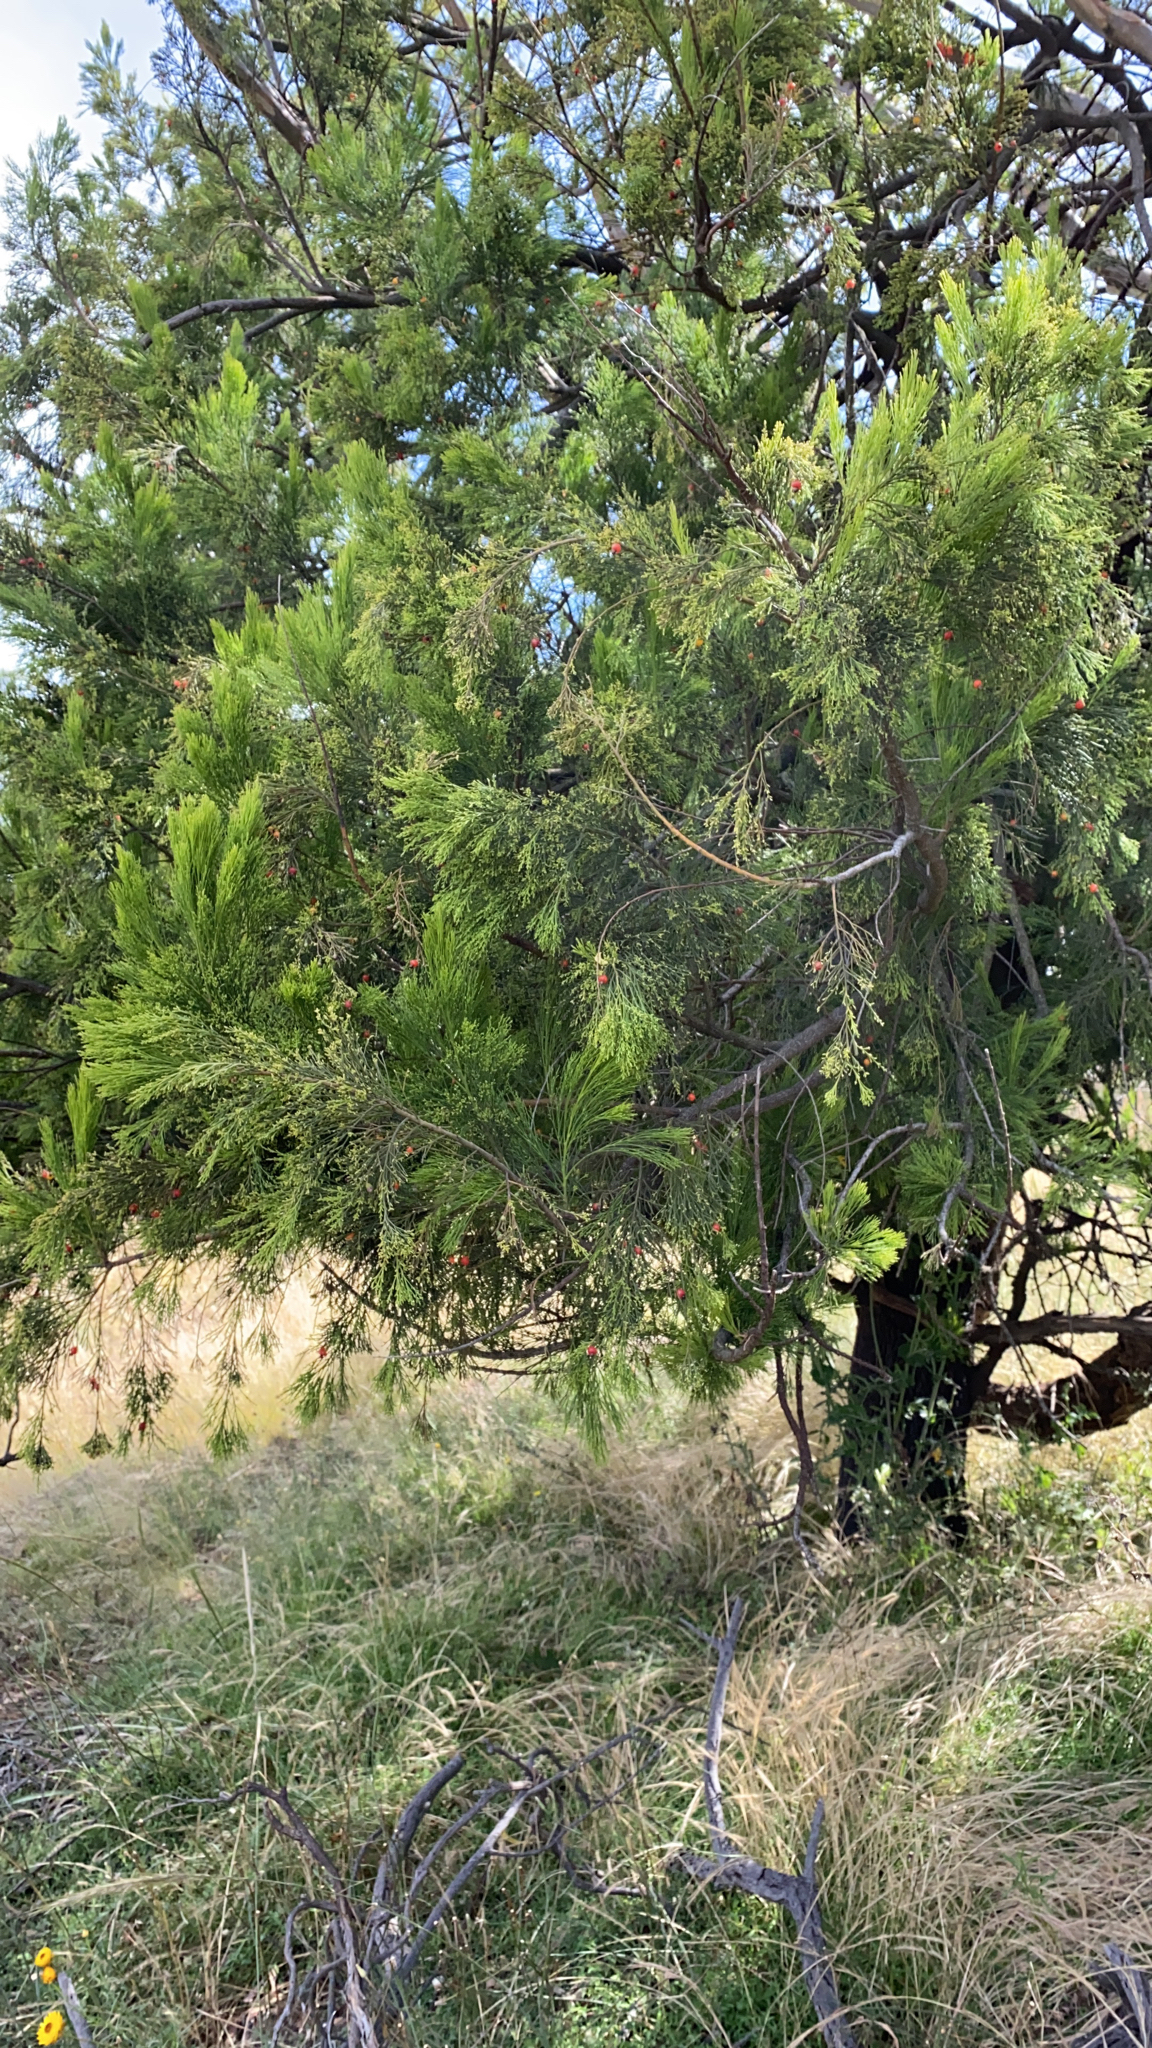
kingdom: Plantae
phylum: Tracheophyta
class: Magnoliopsida
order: Santalales
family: Santalaceae
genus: Exocarpos
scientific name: Exocarpos cupressiformis
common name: Cherry ballart
